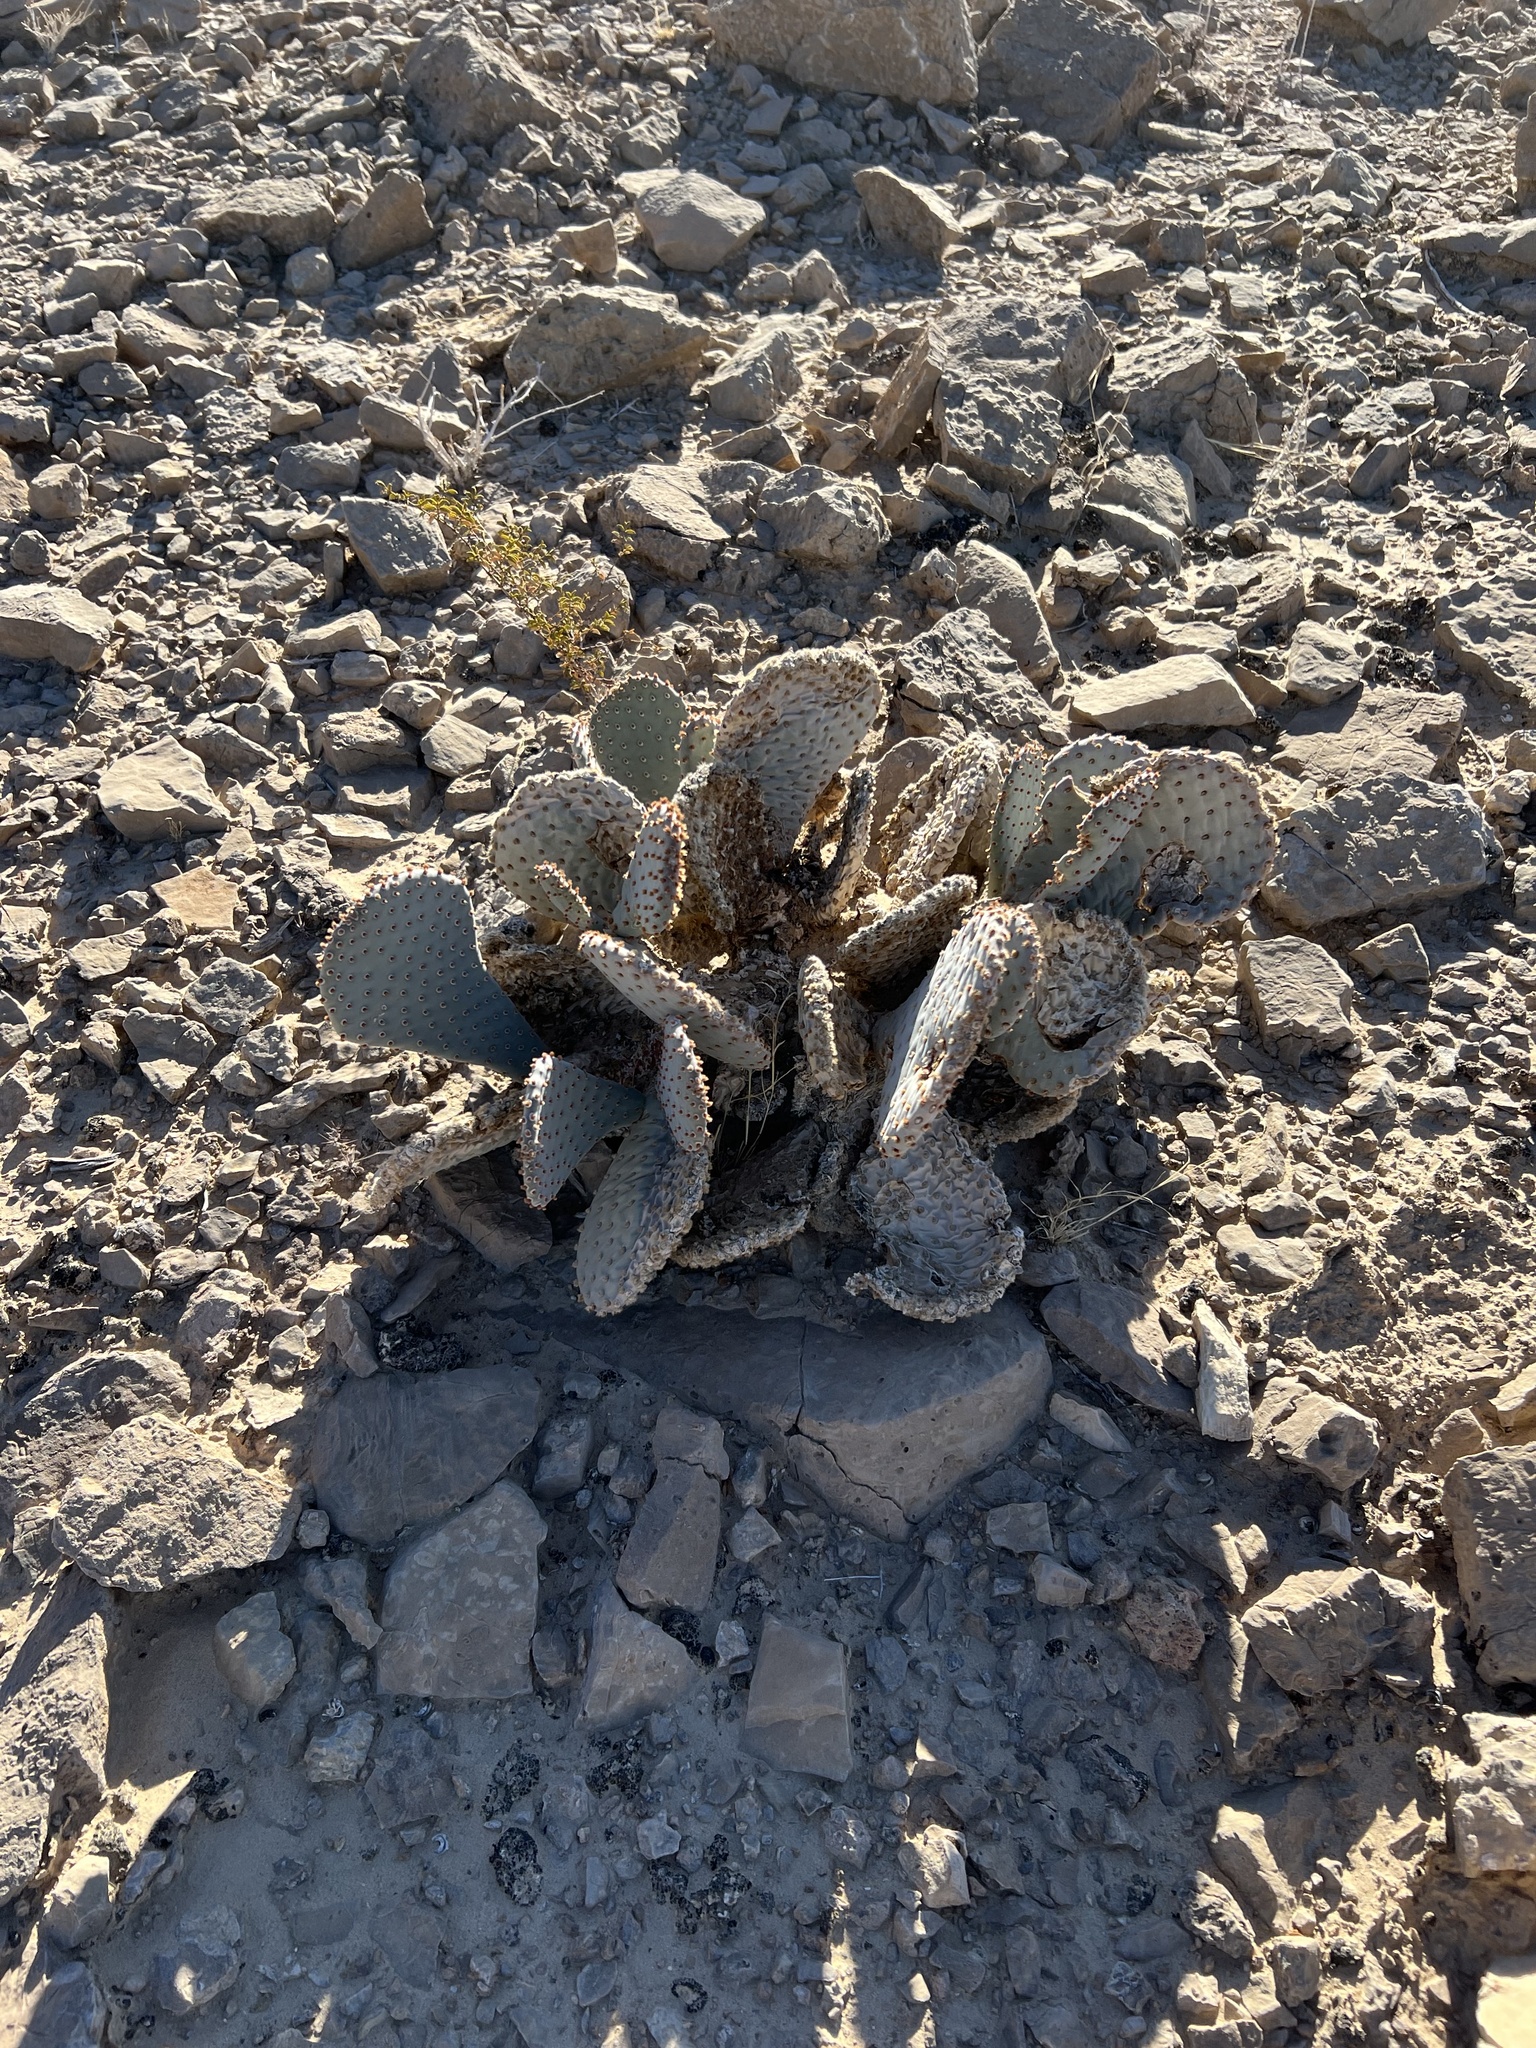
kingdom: Plantae
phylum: Tracheophyta
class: Magnoliopsida
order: Caryophyllales
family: Cactaceae
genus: Opuntia
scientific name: Opuntia basilaris
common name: Beavertail prickly-pear
